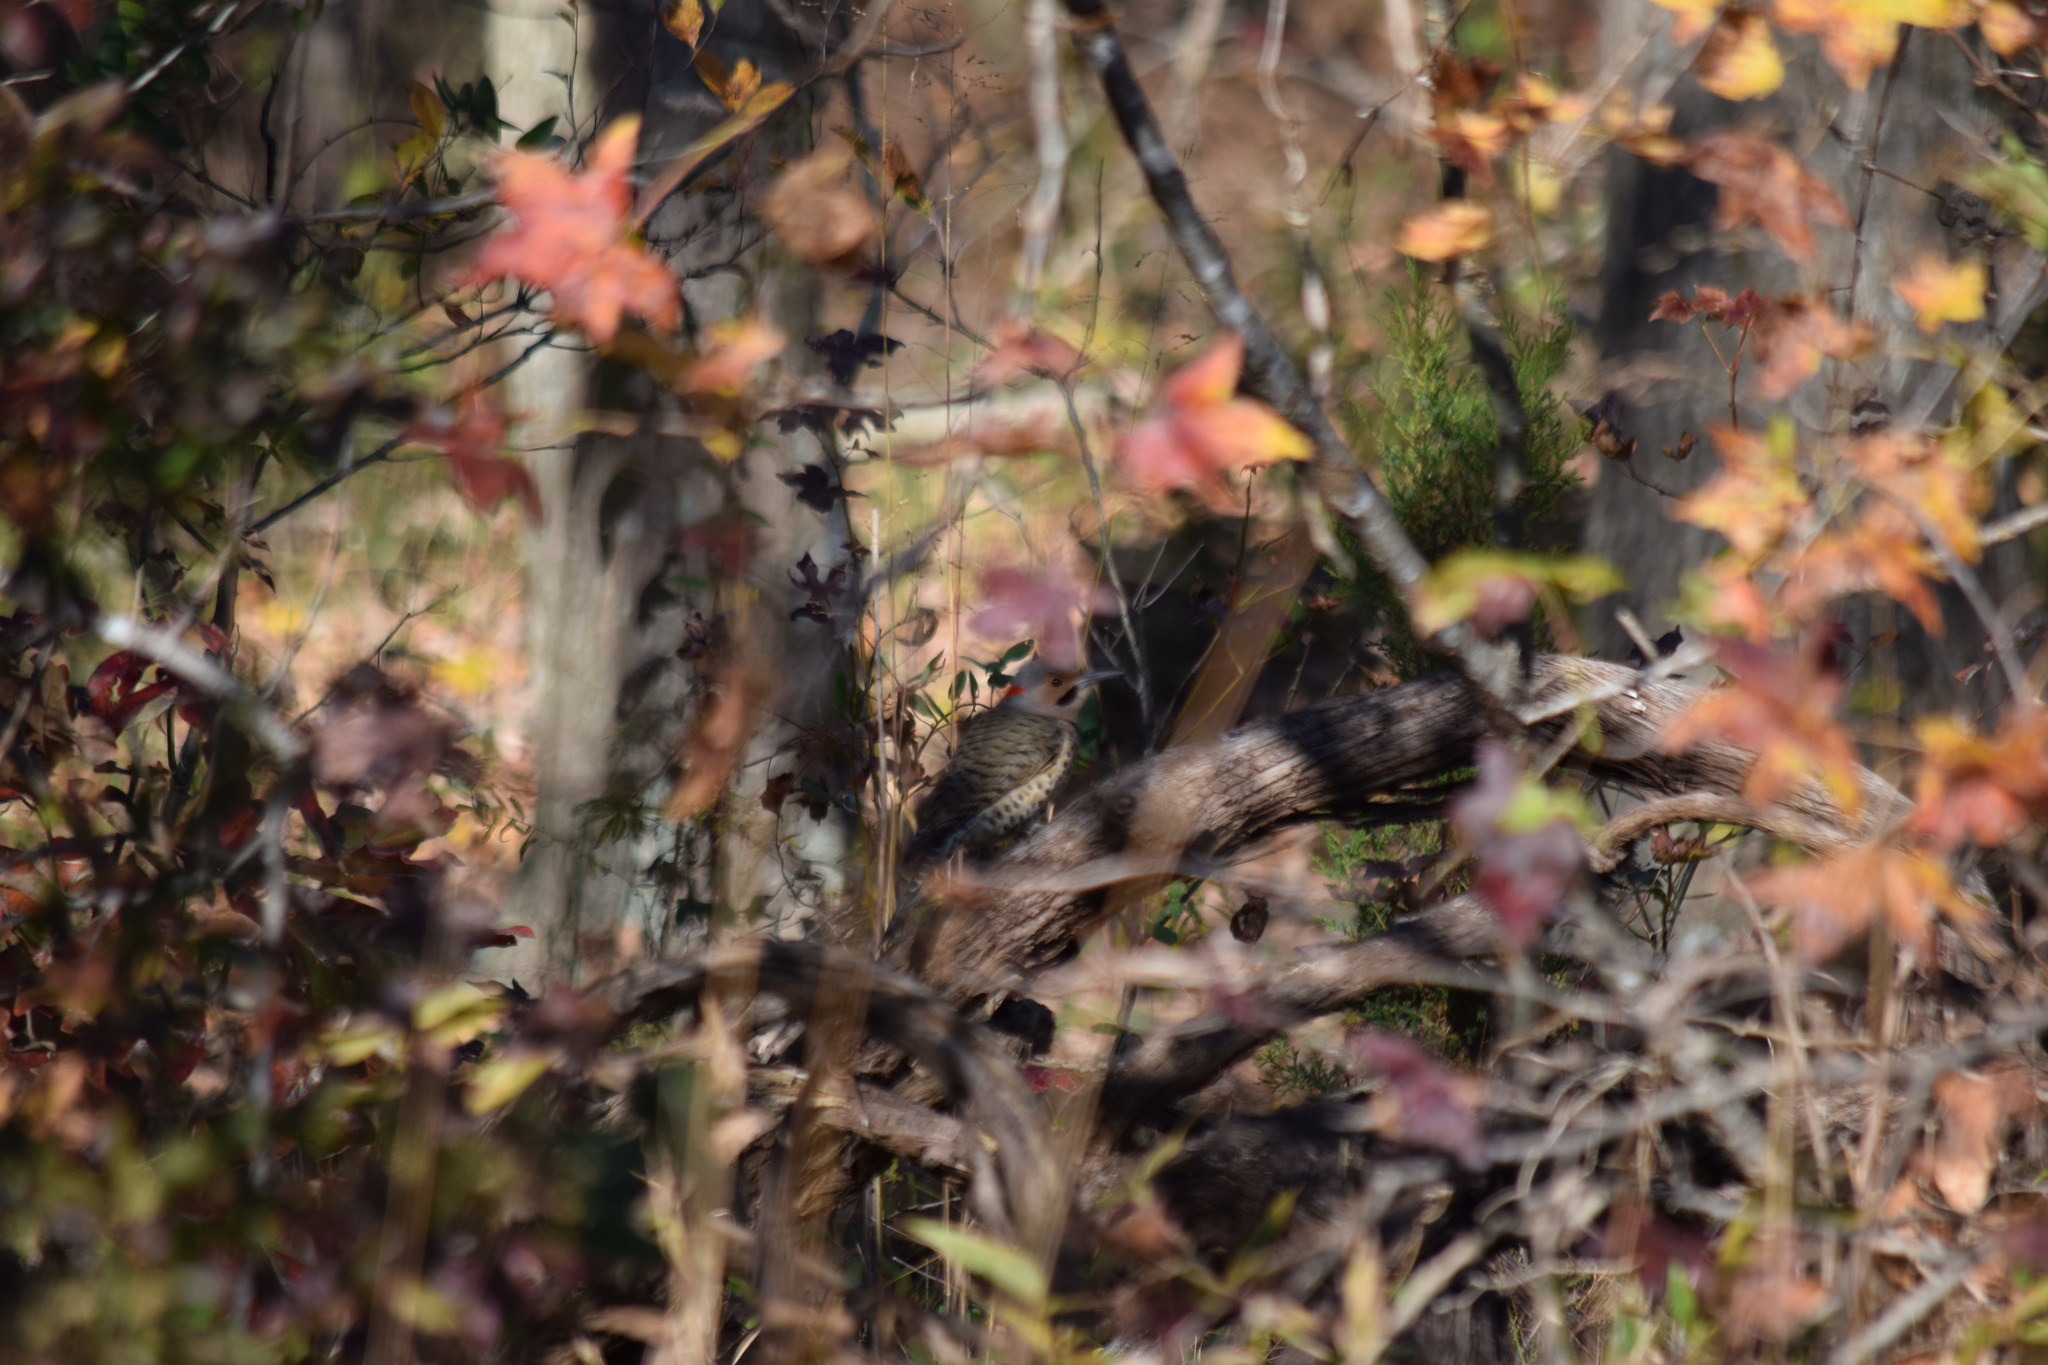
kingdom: Animalia
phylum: Chordata
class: Aves
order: Piciformes
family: Picidae
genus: Colaptes
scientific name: Colaptes auratus
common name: Northern flicker
